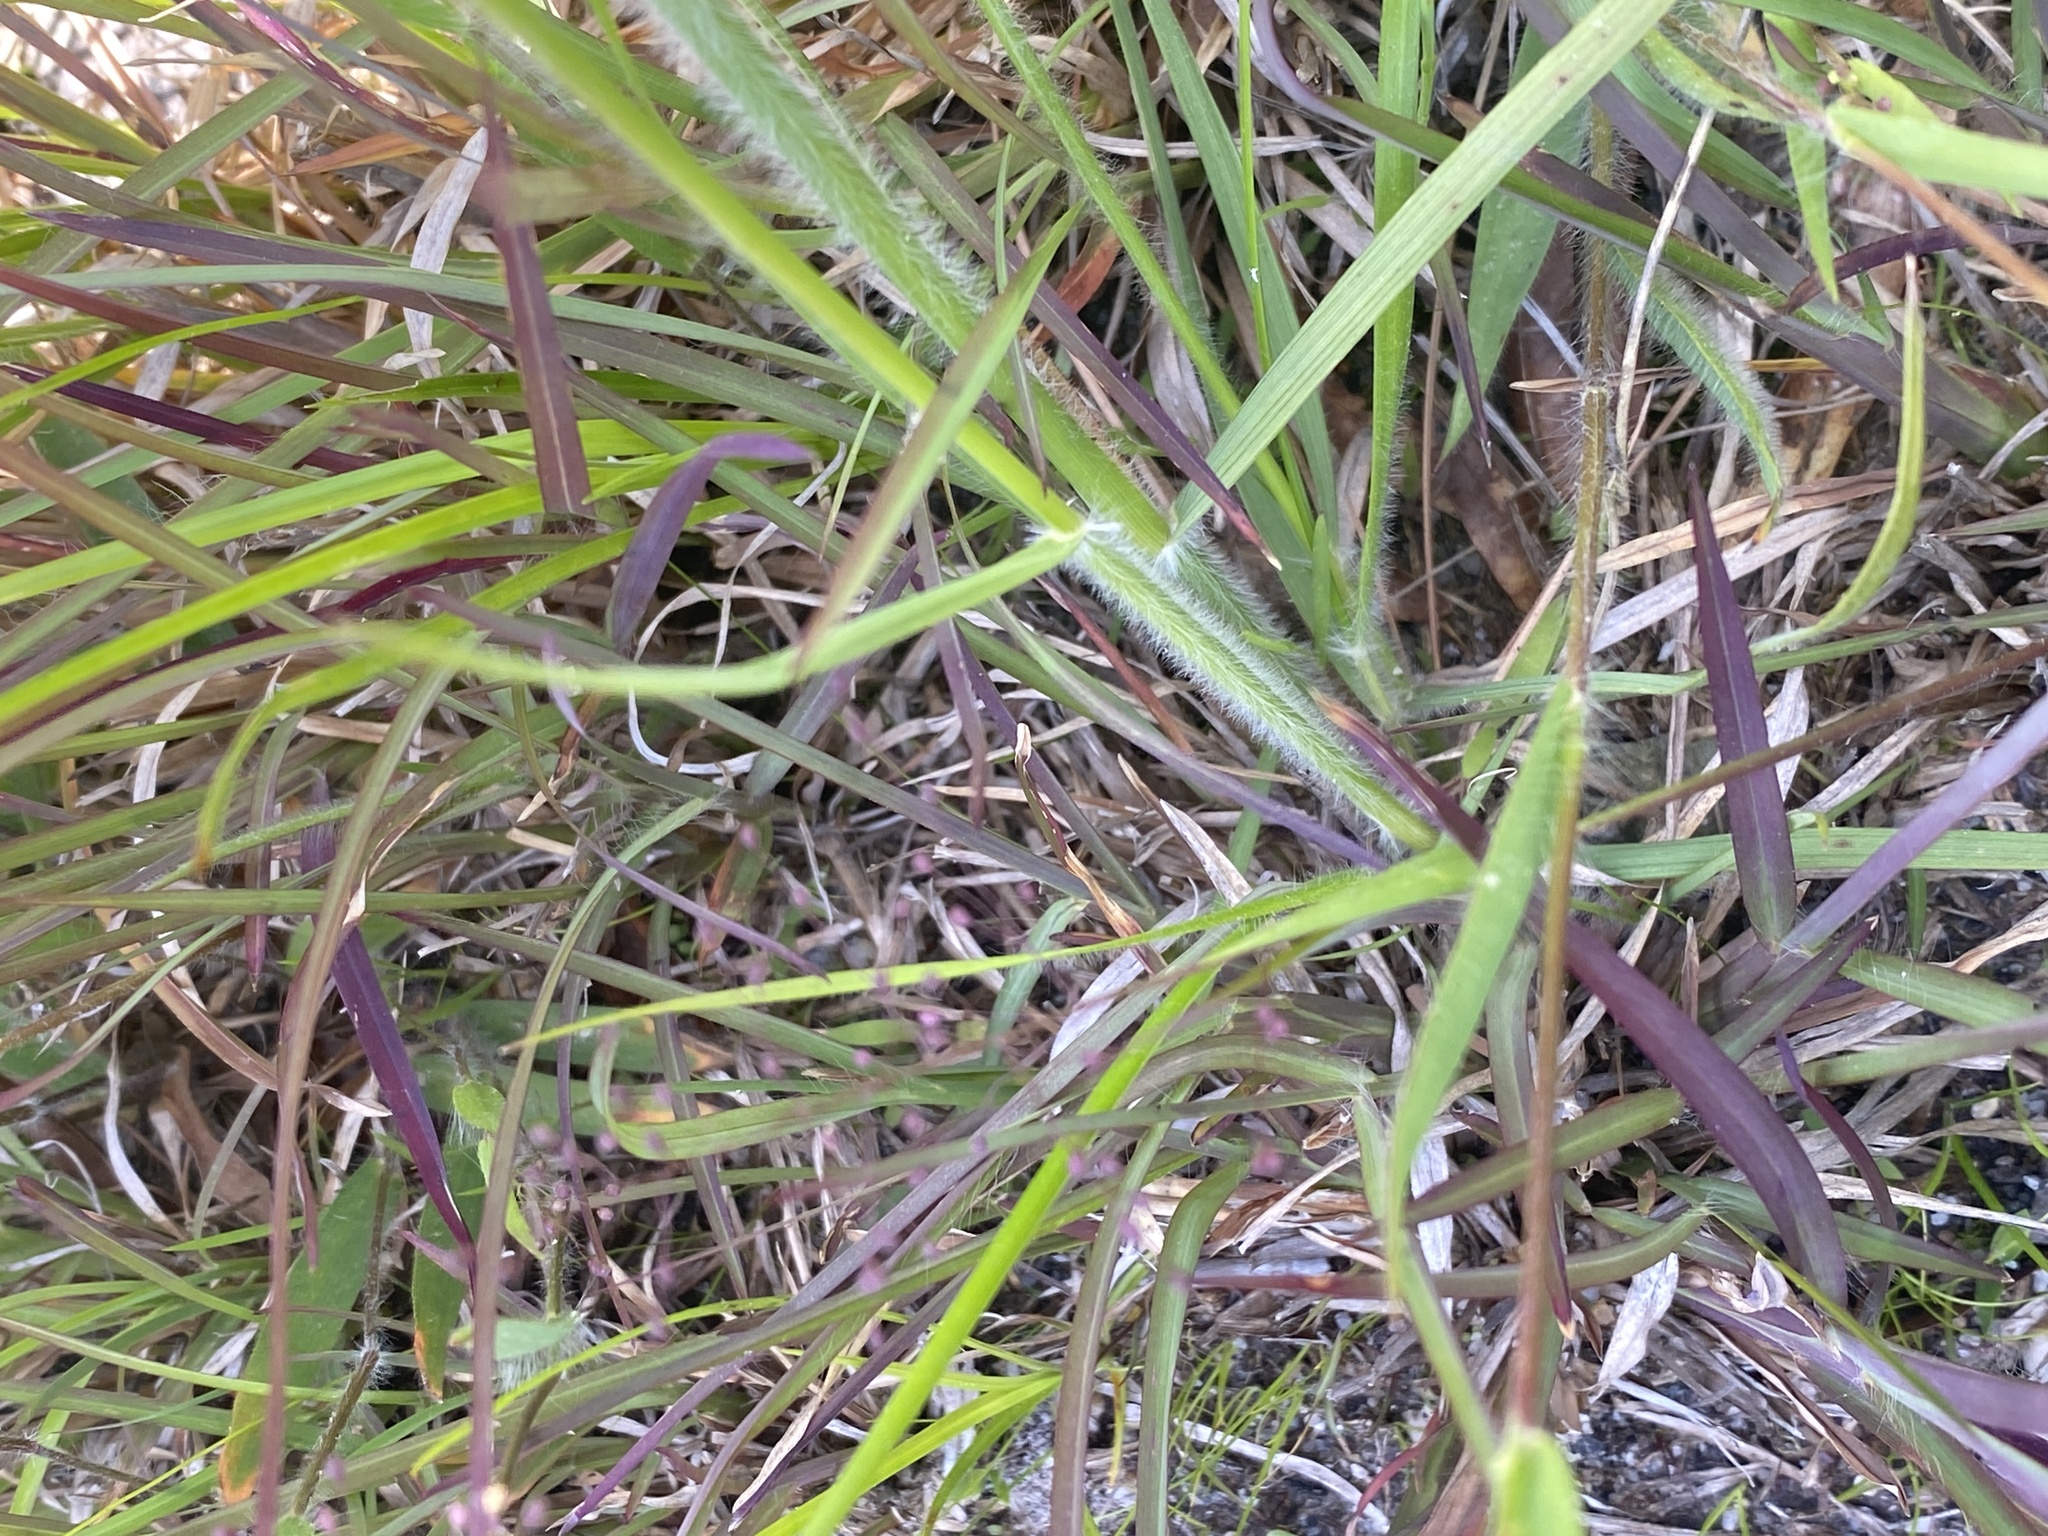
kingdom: Plantae
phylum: Tracheophyta
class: Liliopsida
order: Poales
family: Poaceae
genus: Danthonia
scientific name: Danthonia sericea
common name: Downy danthonia
